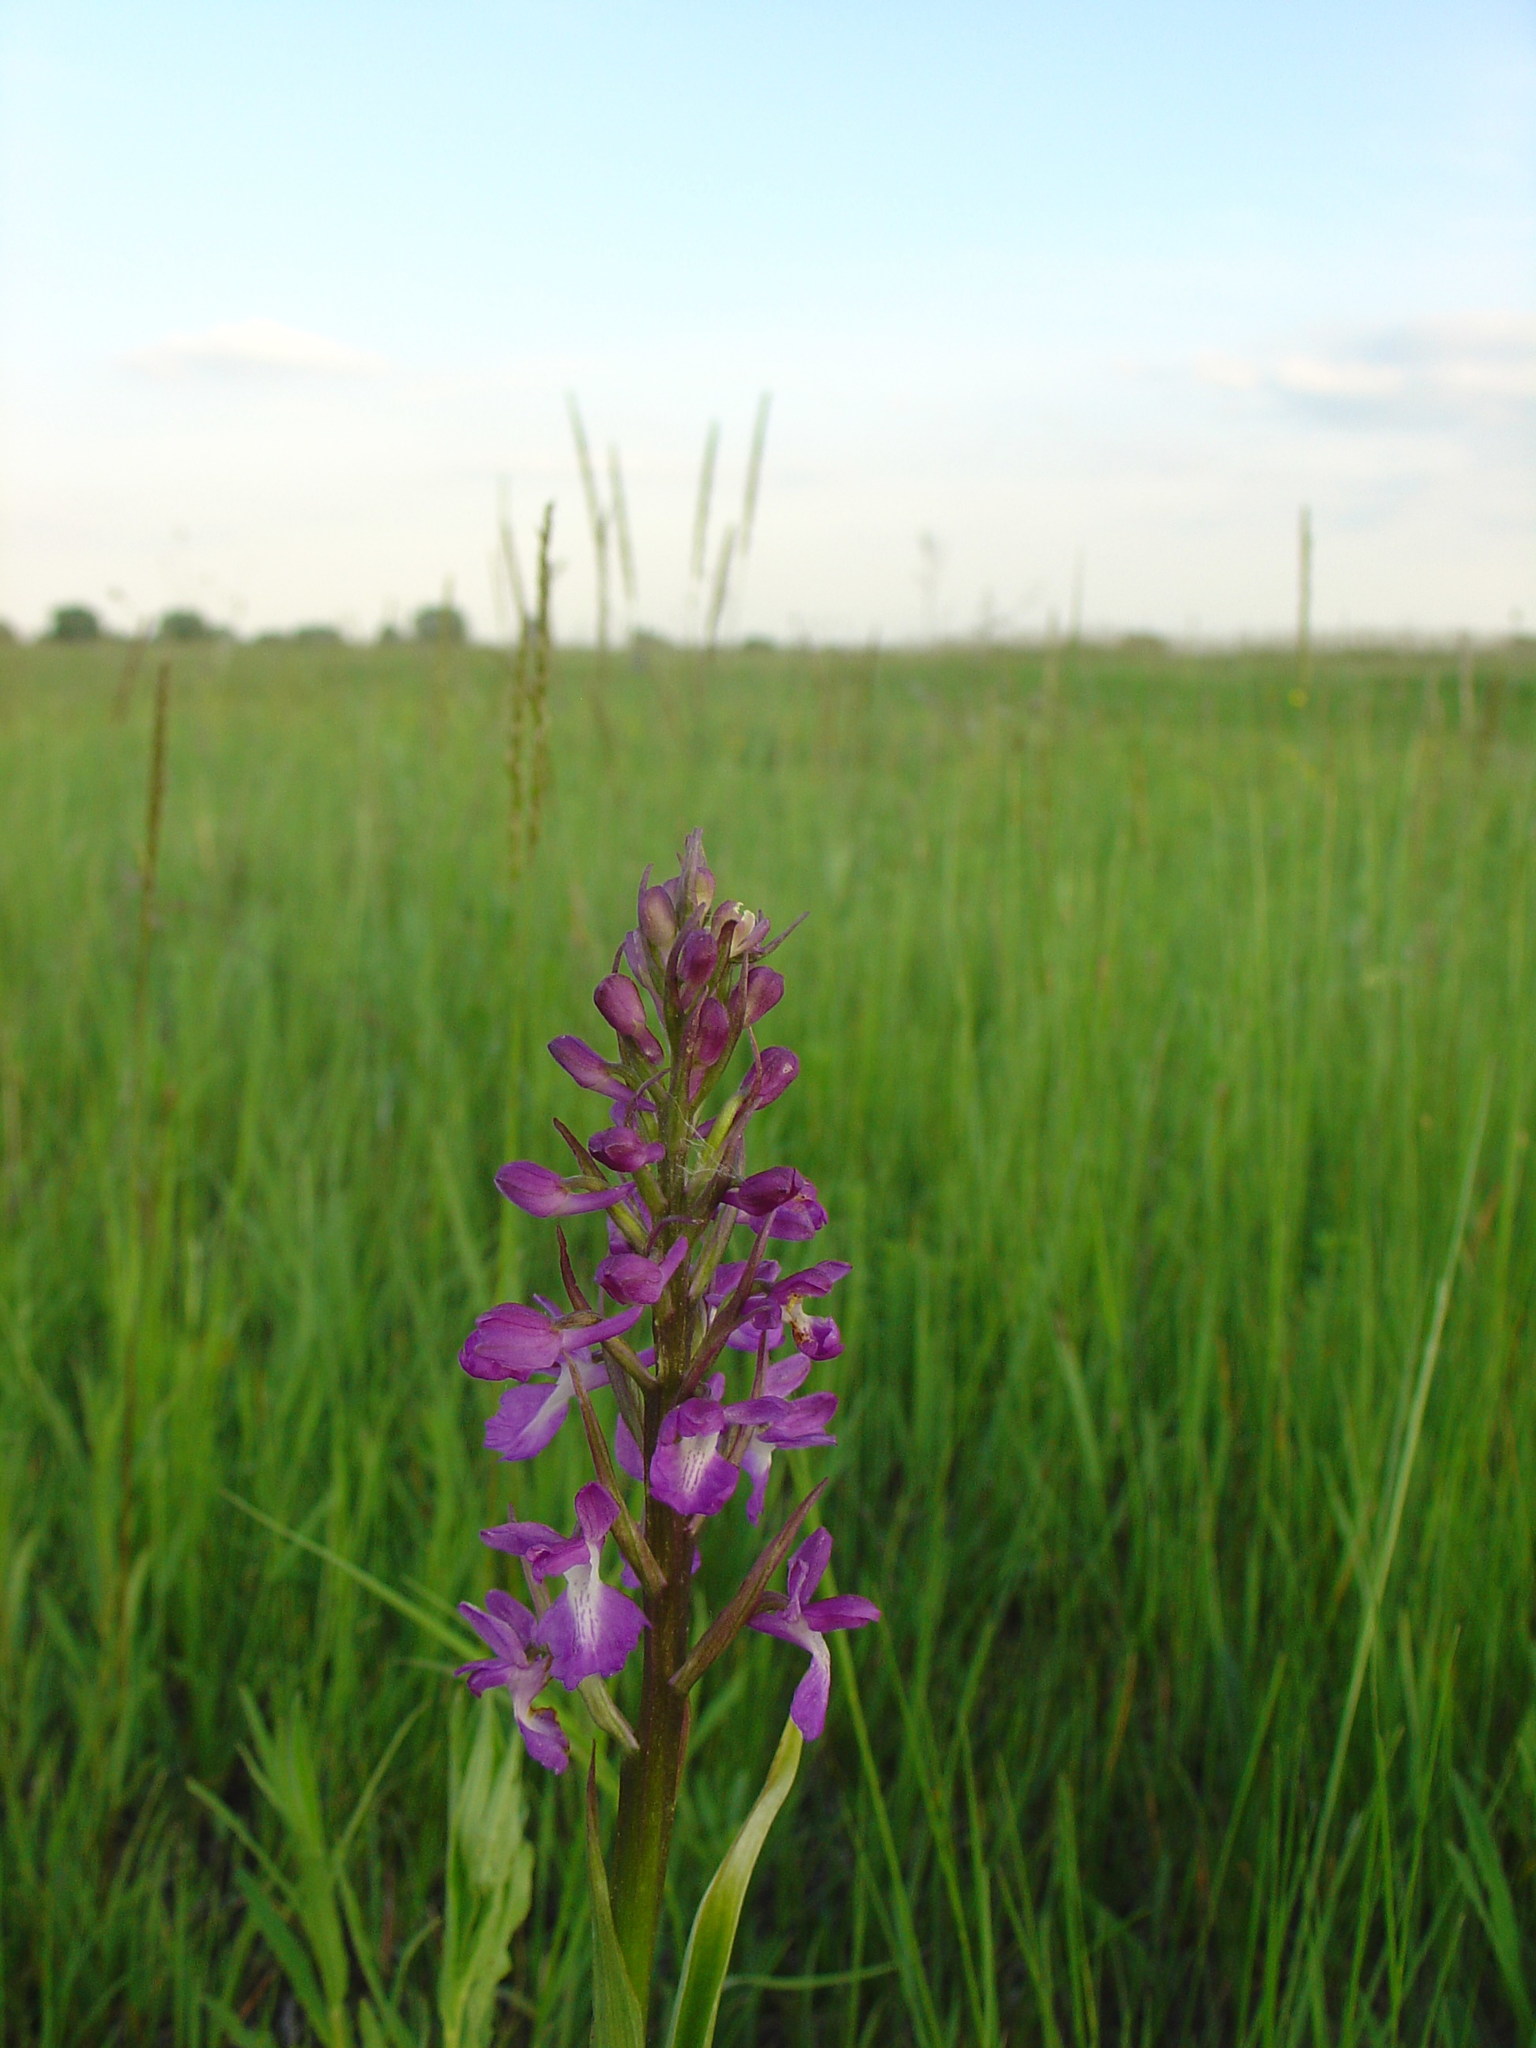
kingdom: Plantae
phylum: Tracheophyta
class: Liliopsida
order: Asparagales
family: Orchidaceae
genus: Anacamptis
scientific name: Anacamptis laxiflora
